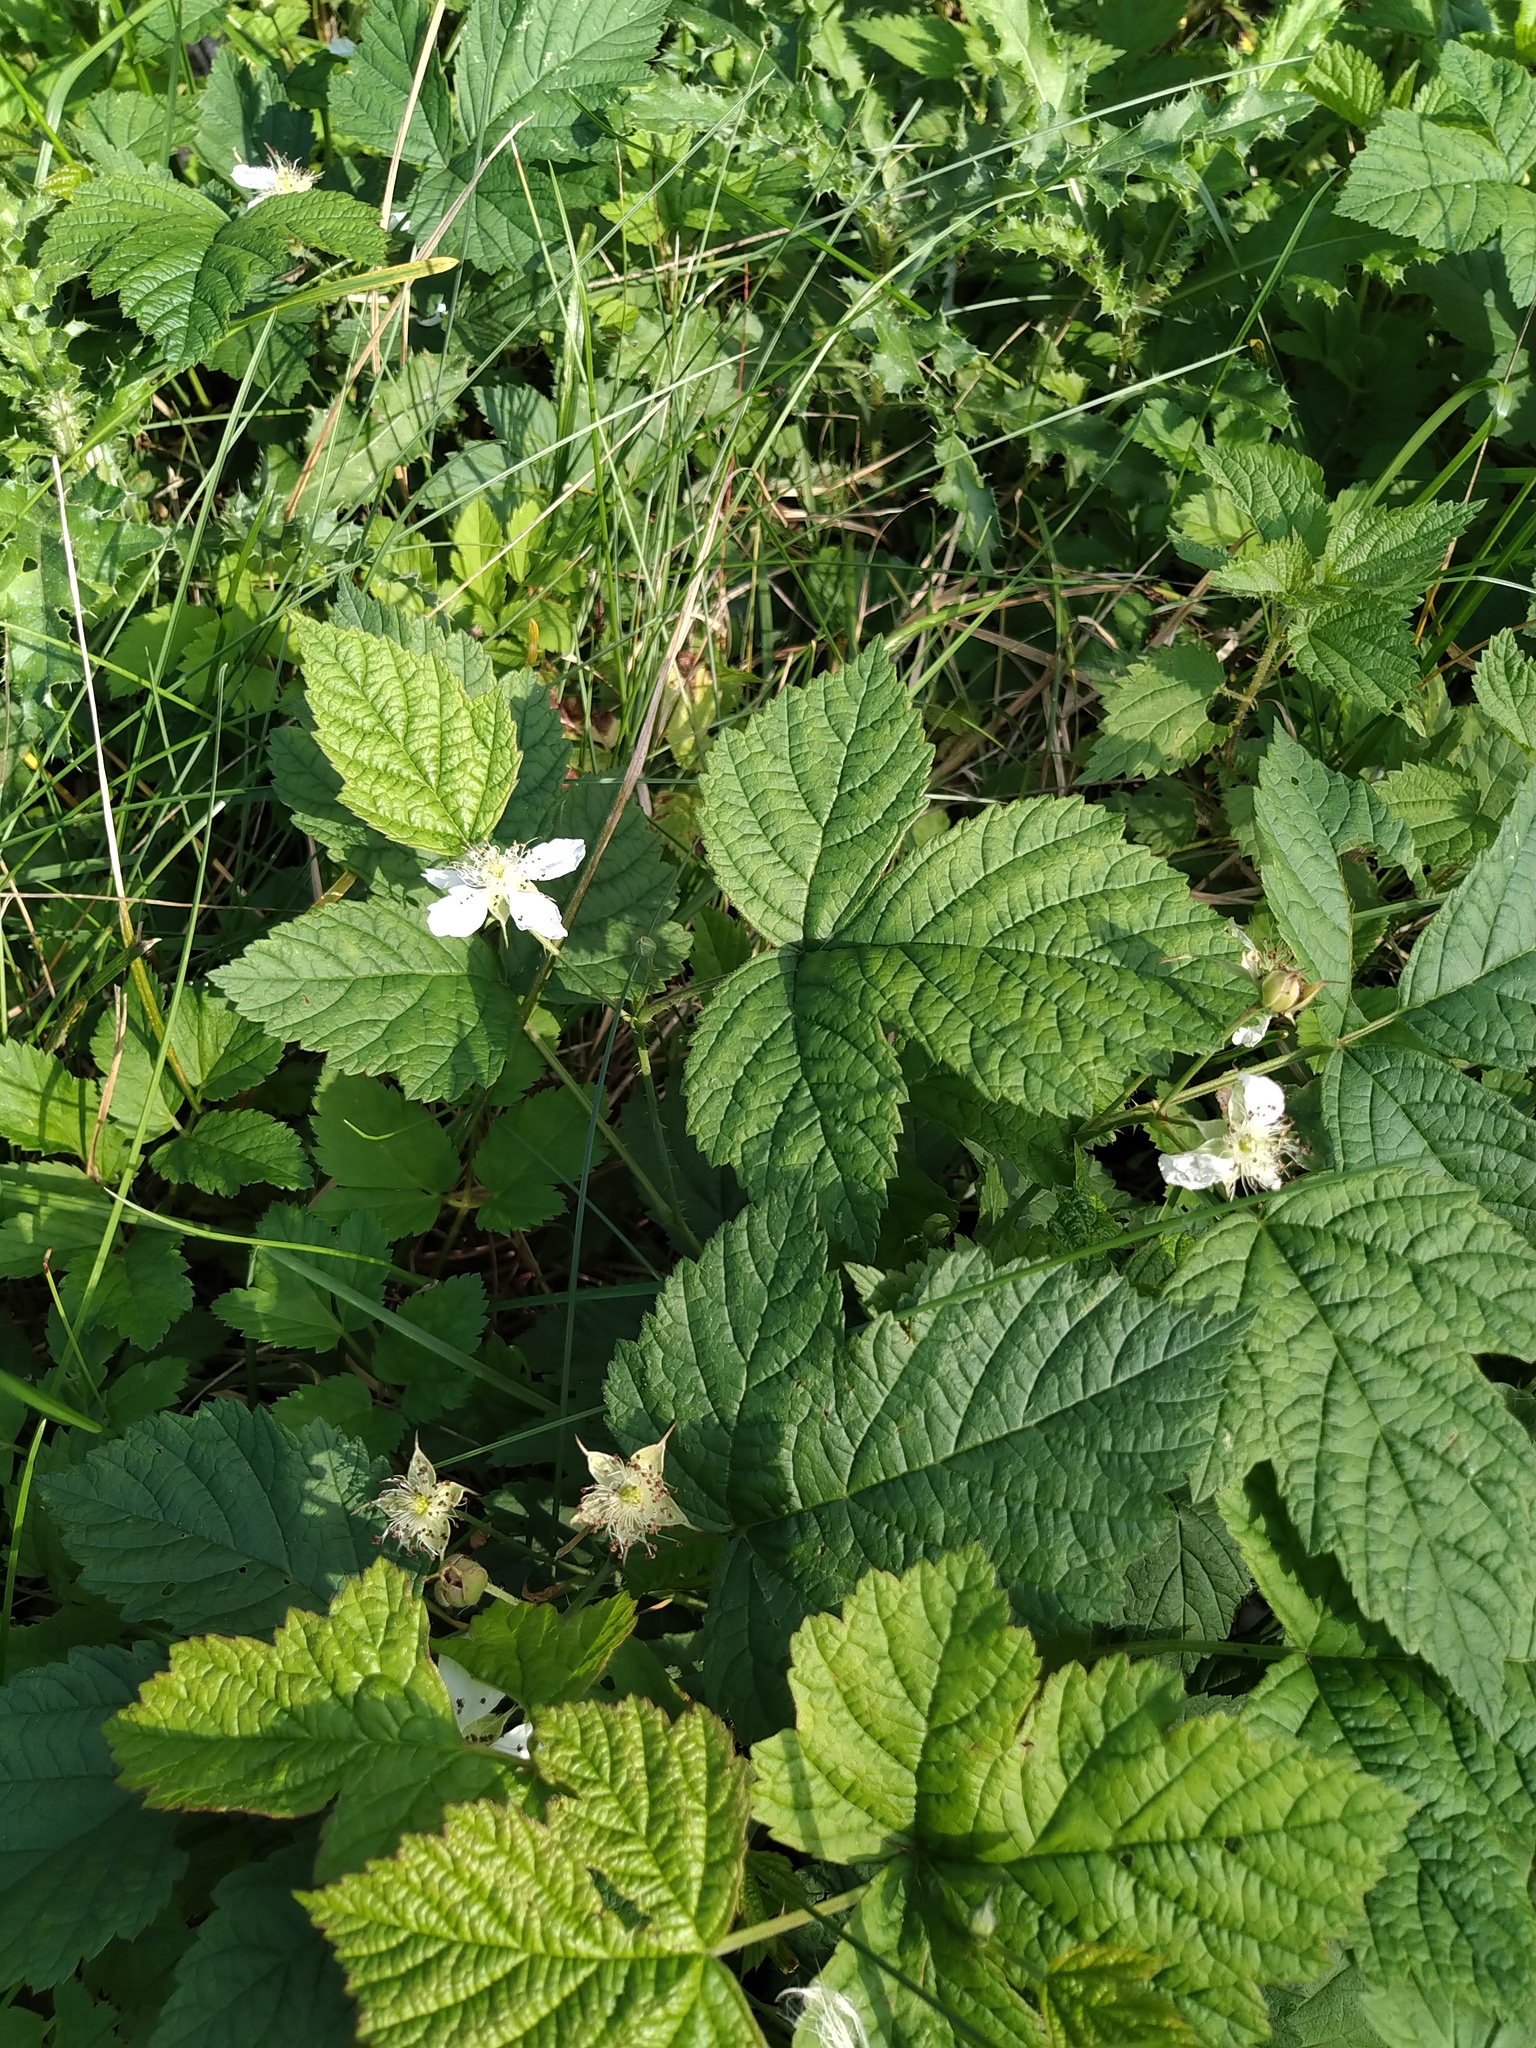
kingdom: Plantae
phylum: Tracheophyta
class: Magnoliopsida
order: Rosales
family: Rosaceae
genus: Rubus
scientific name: Rubus caesius
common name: Dewberry
